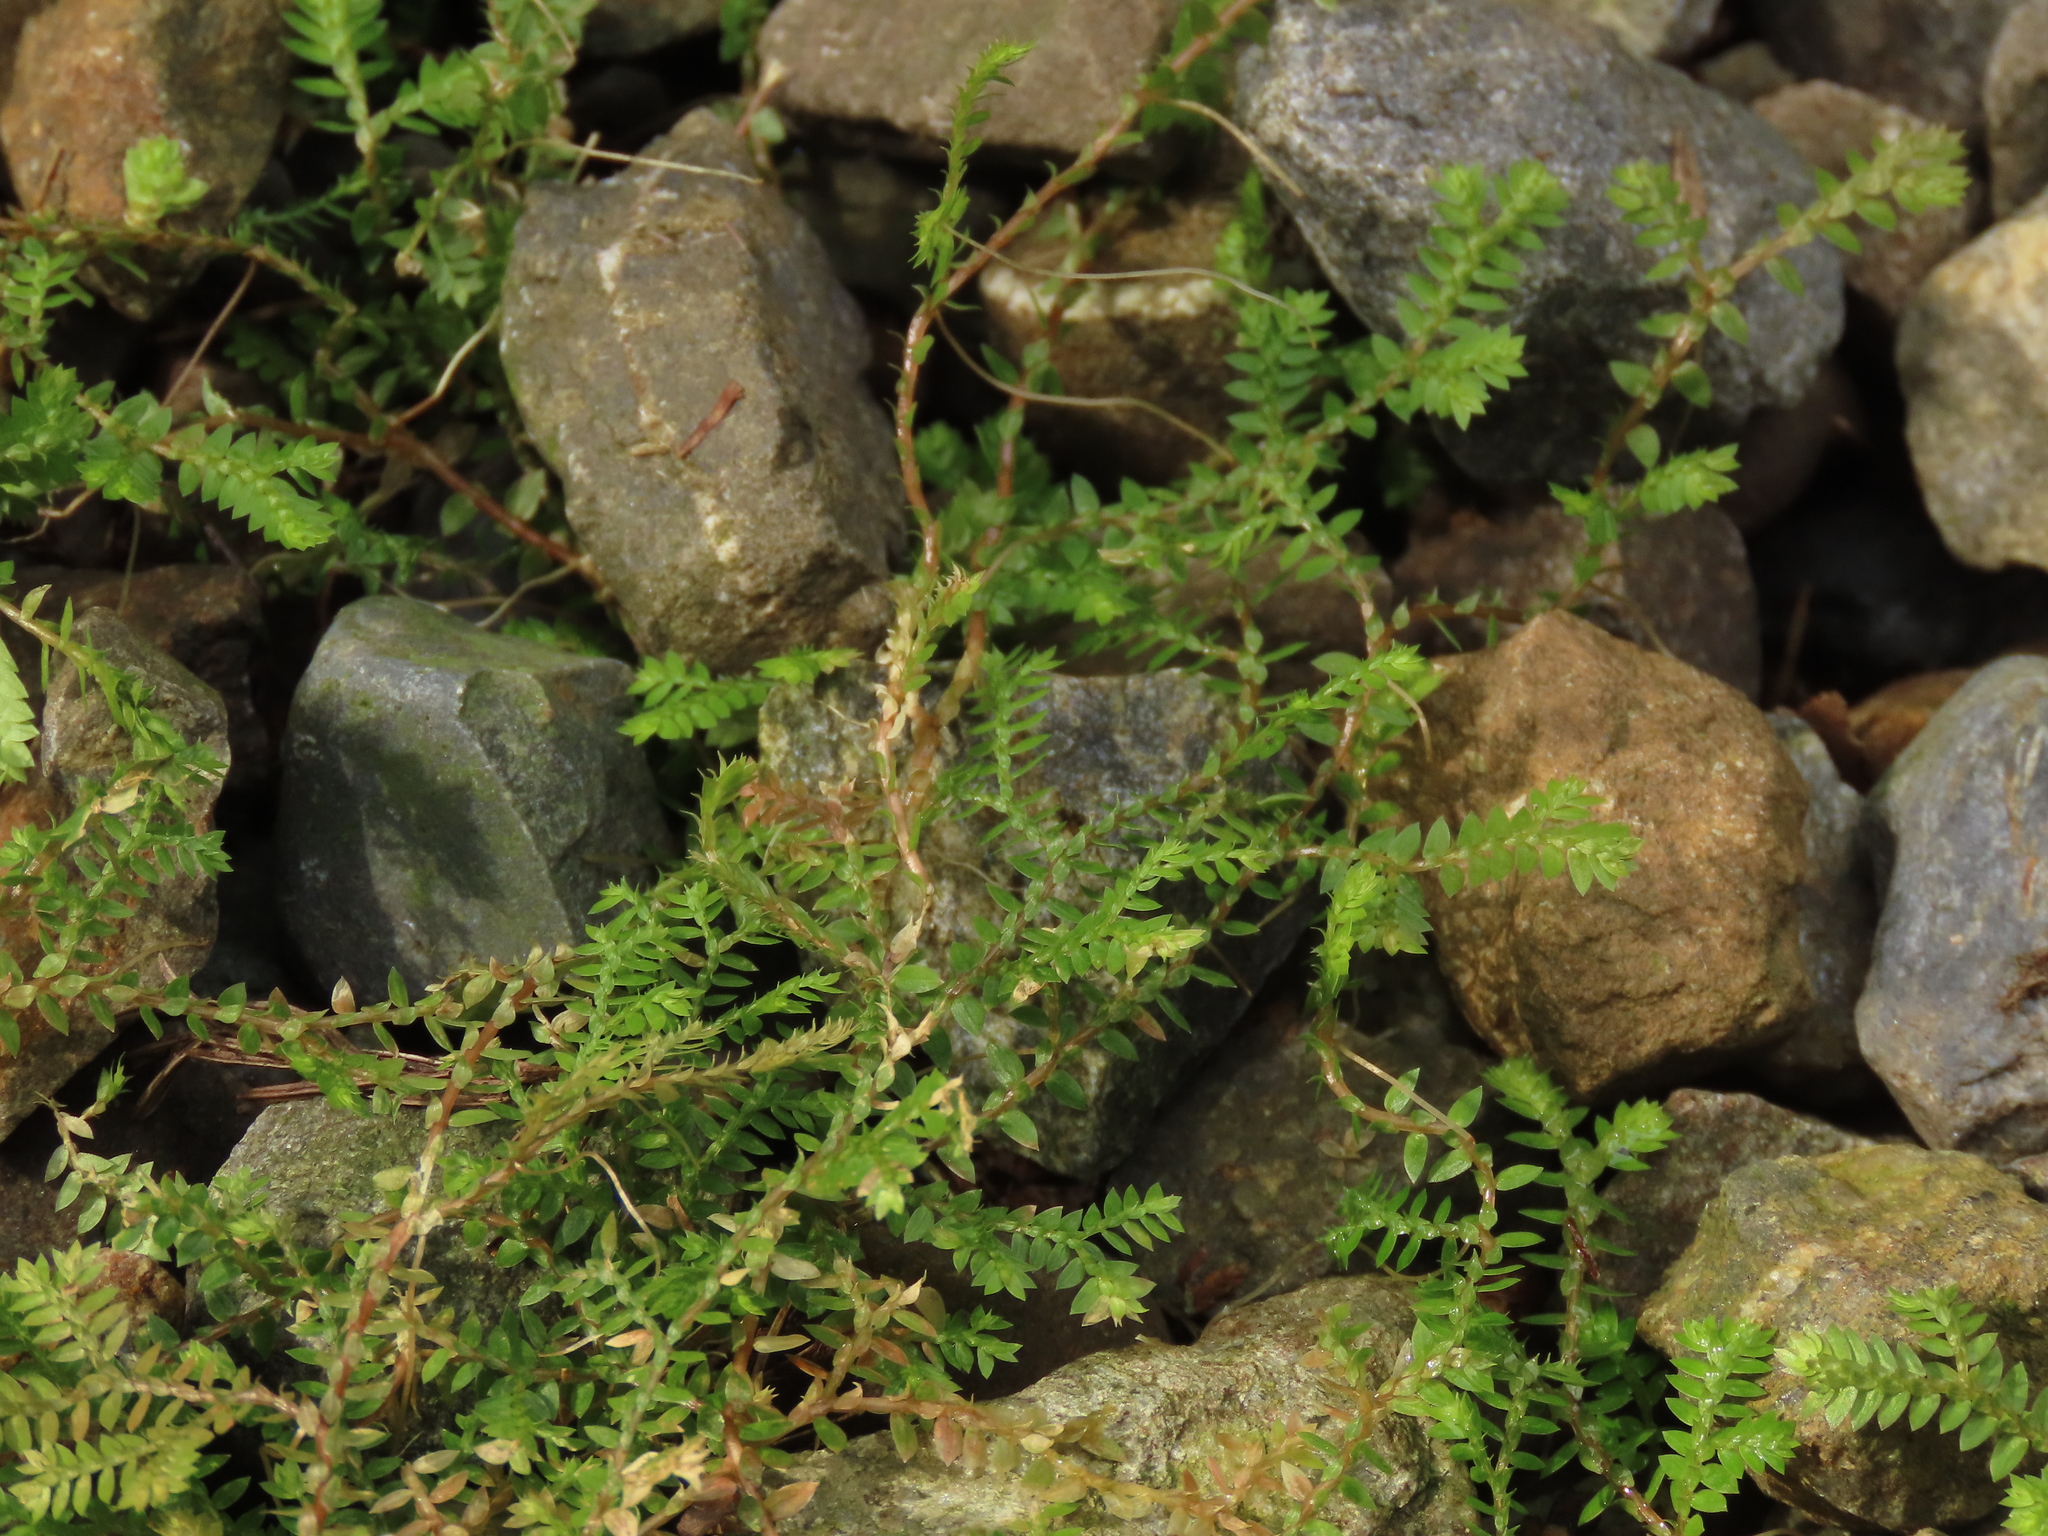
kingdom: Plantae
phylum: Tracheophyta
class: Lycopodiopsida
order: Selaginellales
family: Selaginellaceae
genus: Selaginella
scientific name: Selaginella remotifolia
